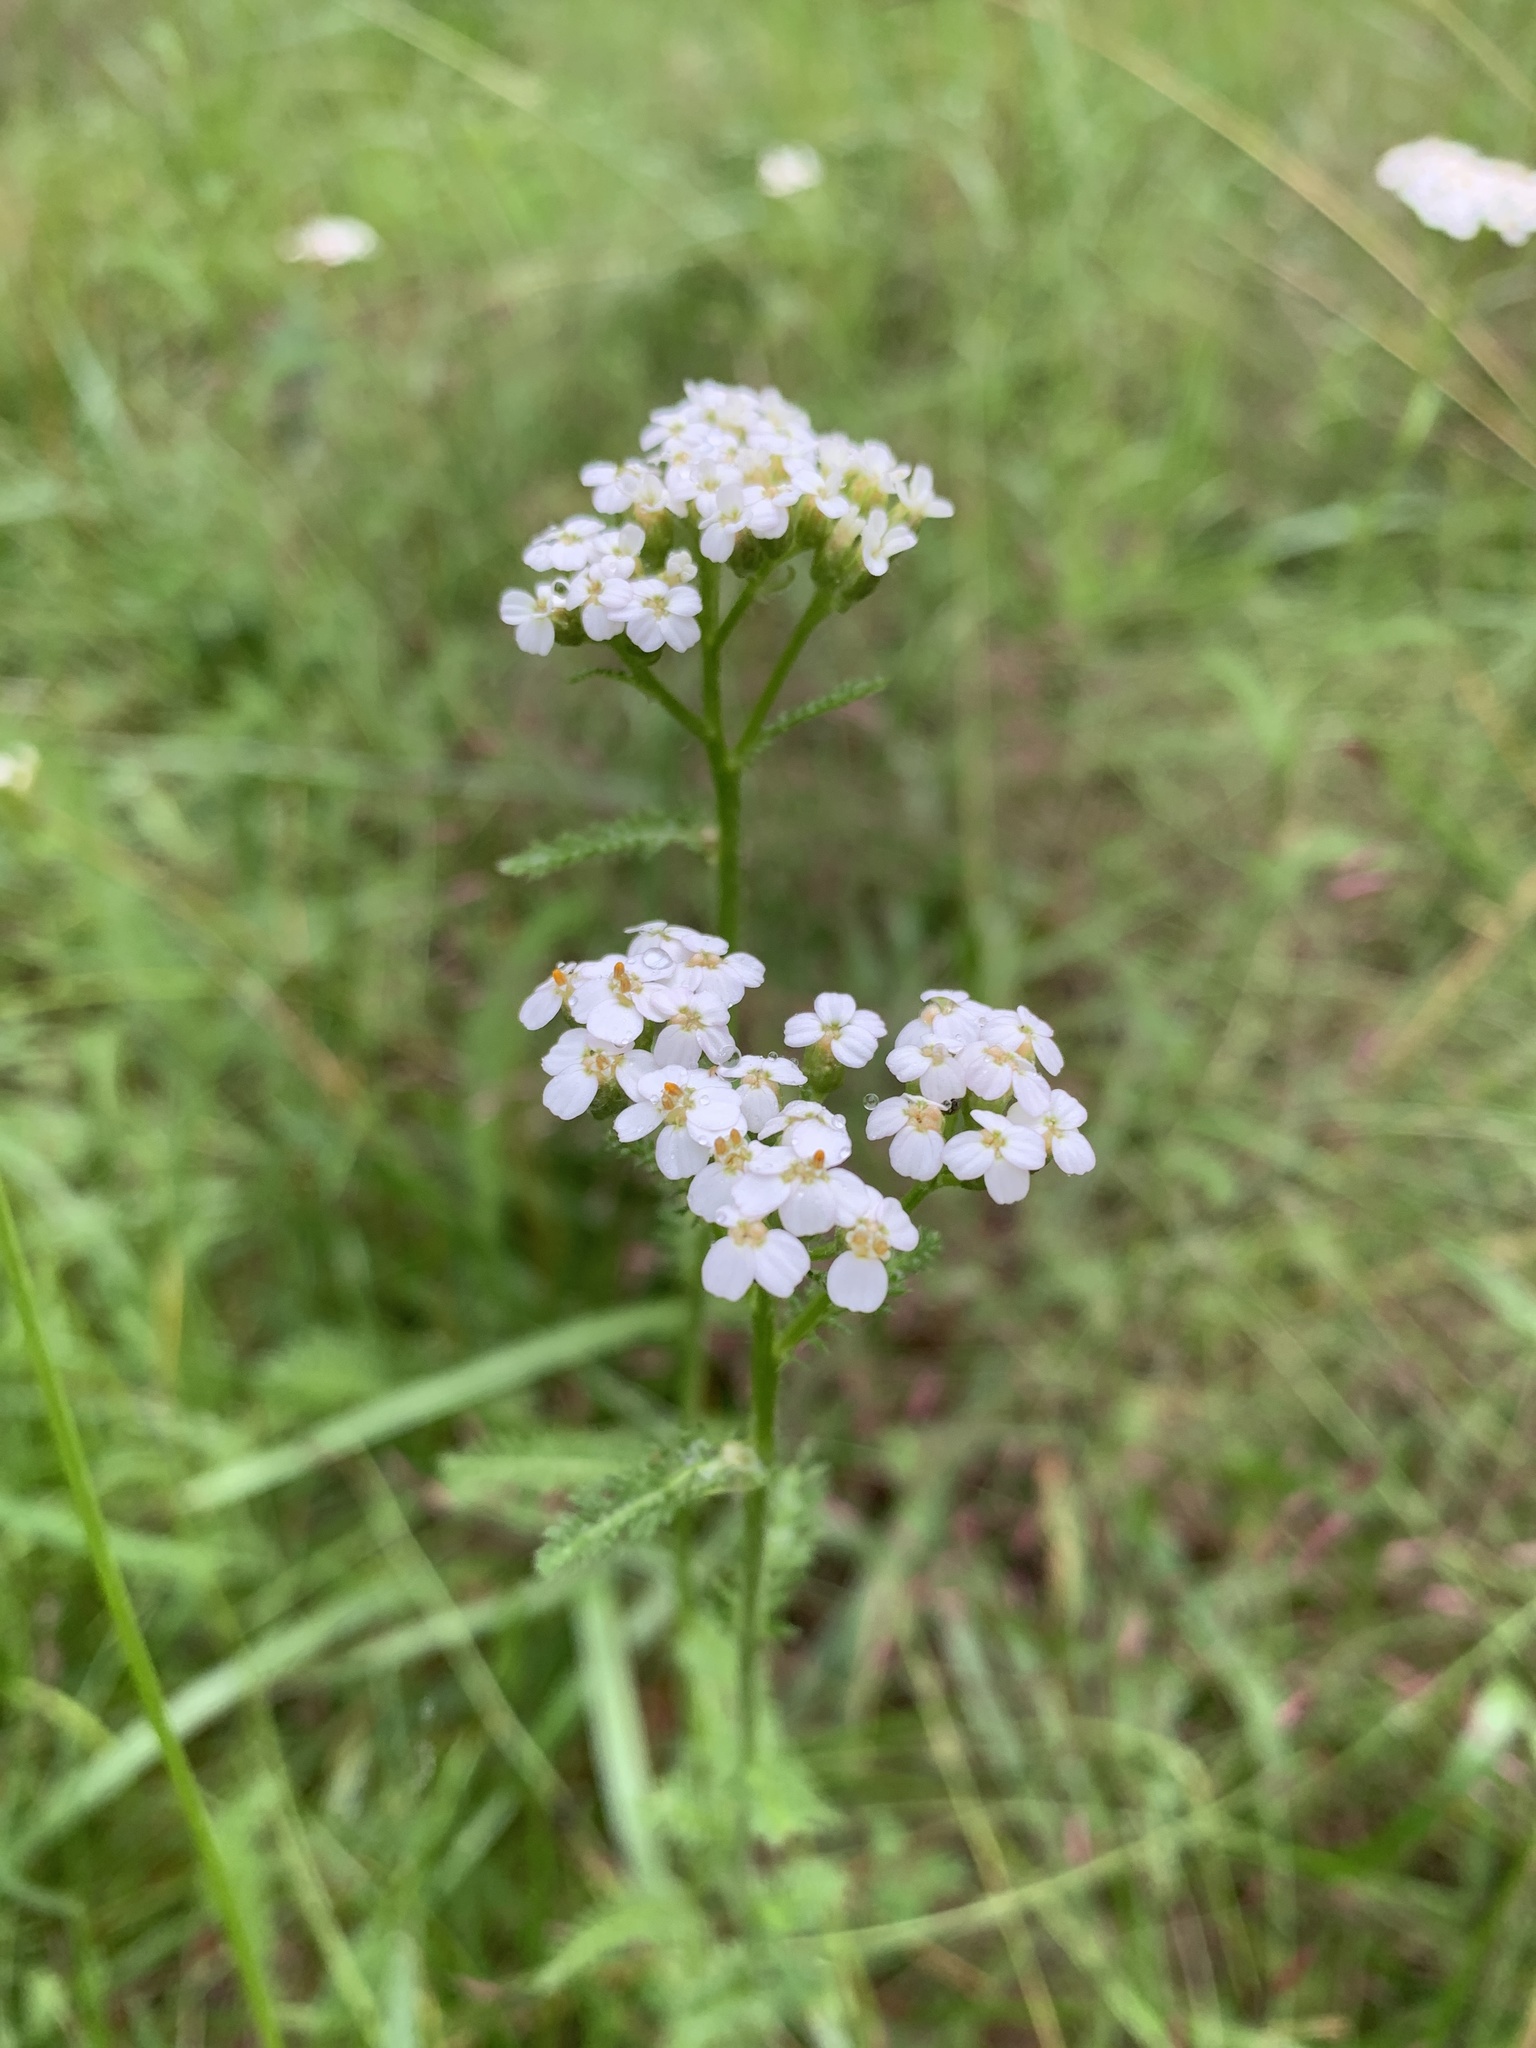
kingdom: Plantae
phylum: Tracheophyta
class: Magnoliopsida
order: Asterales
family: Asteraceae
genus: Achillea
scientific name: Achillea millefolium
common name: Yarrow
